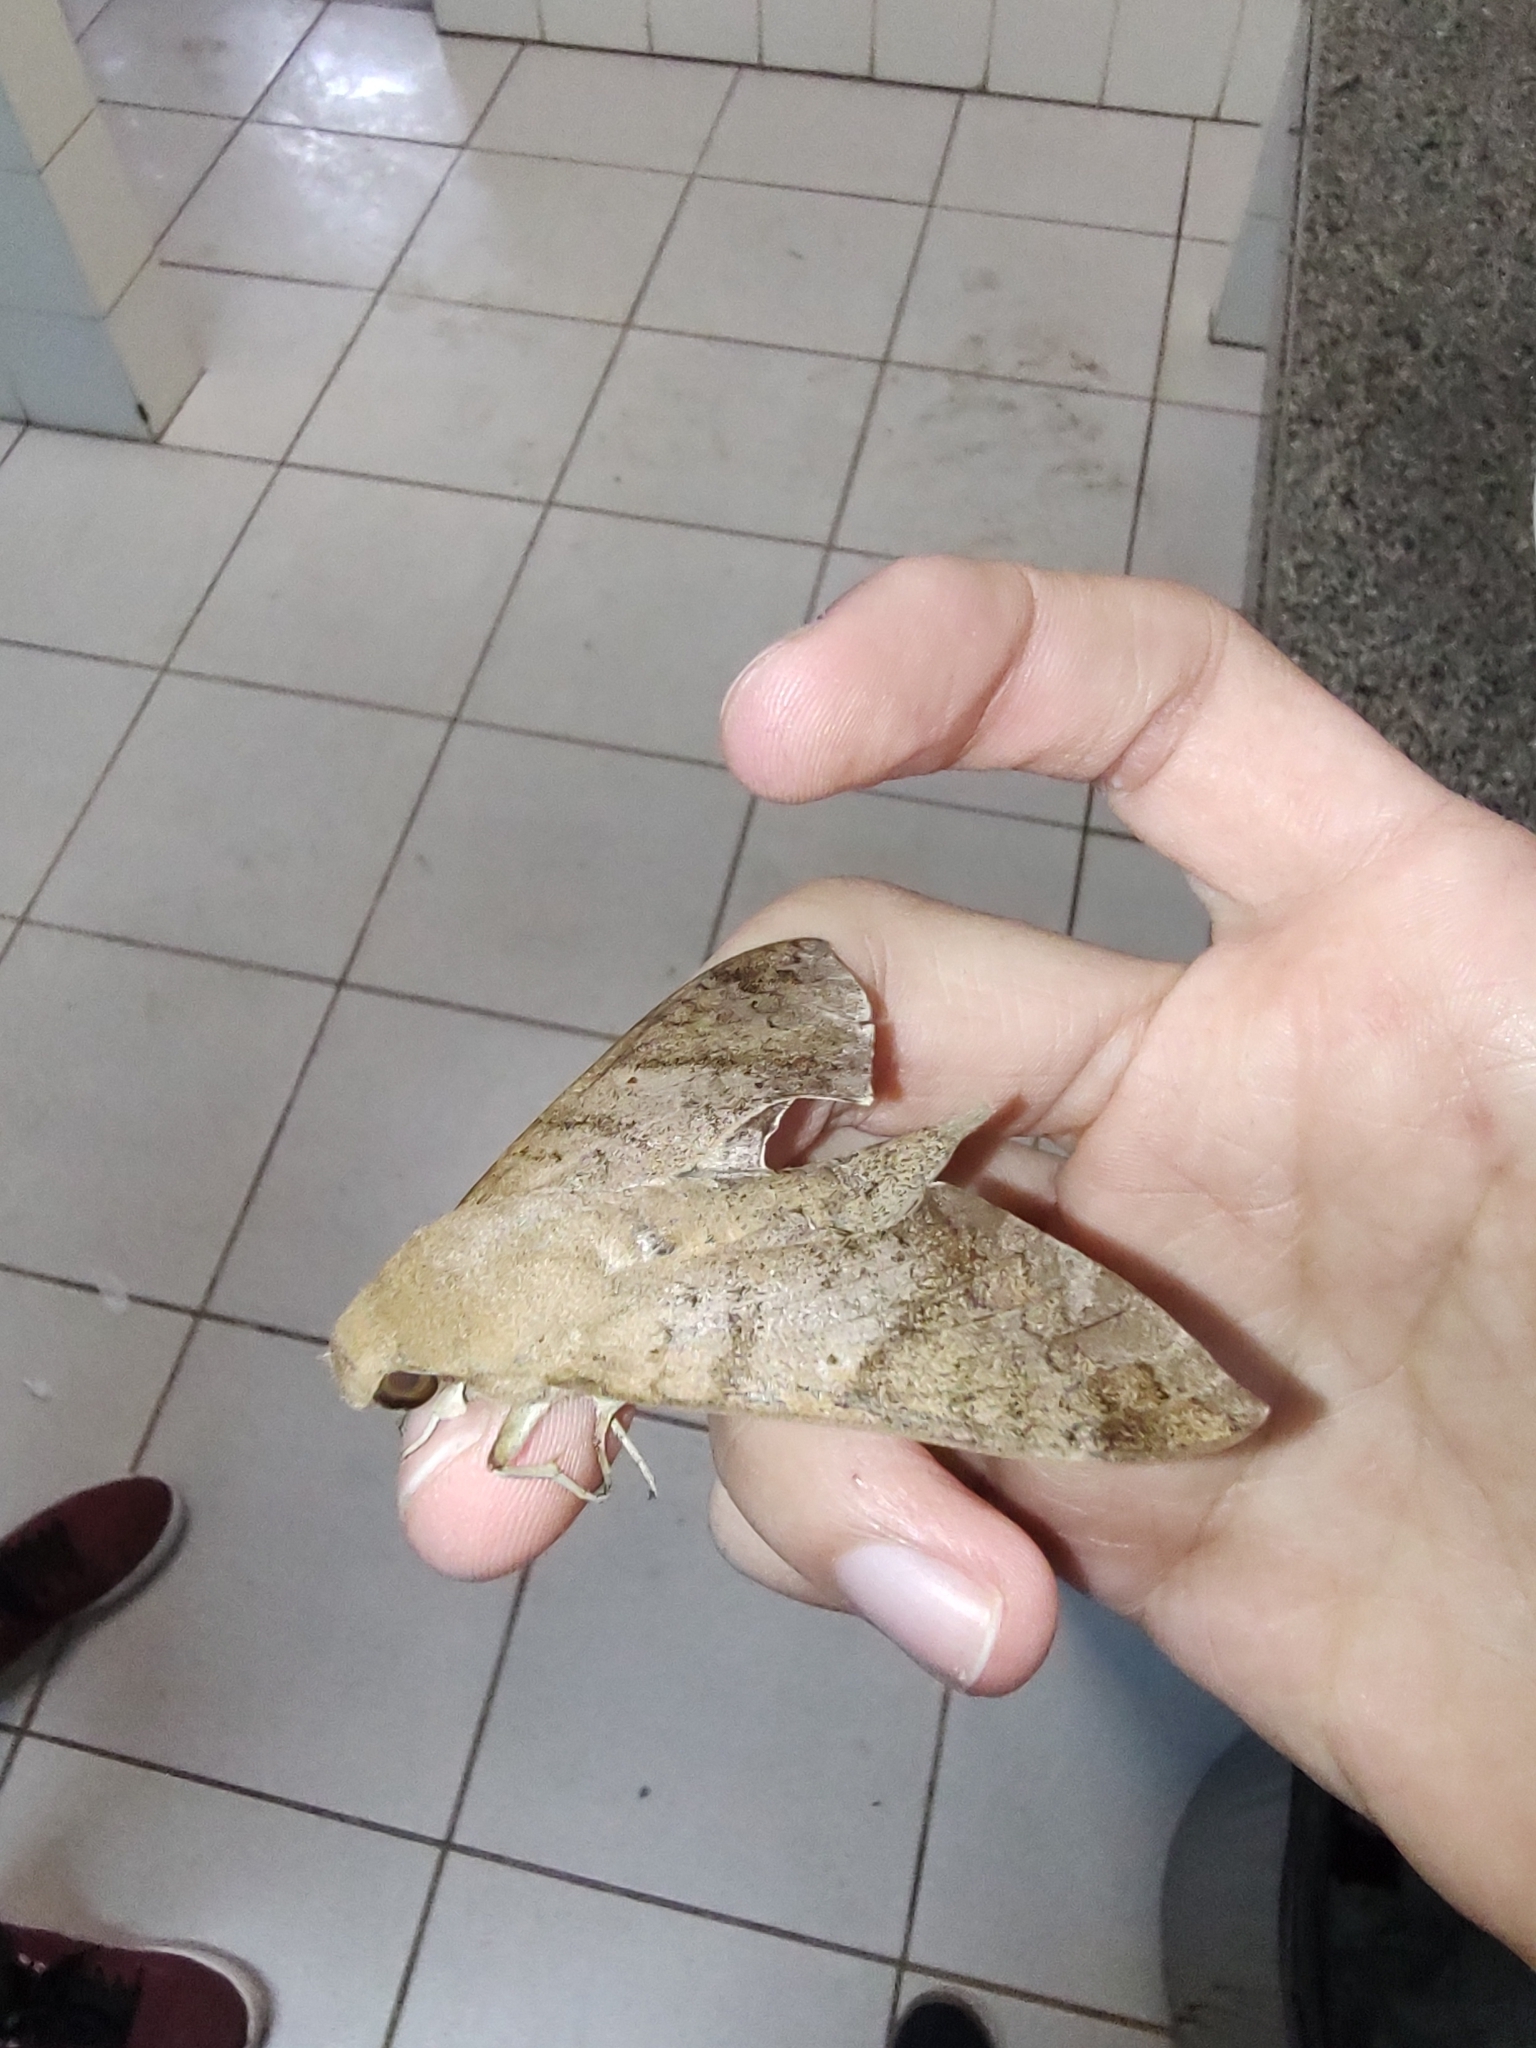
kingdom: Animalia
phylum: Arthropoda
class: Insecta
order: Lepidoptera
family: Sphingidae
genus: Pachylioides
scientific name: Pachylioides resumens
